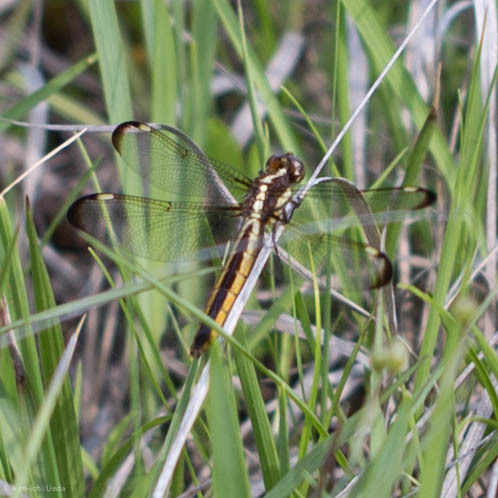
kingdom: Animalia
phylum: Arthropoda
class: Insecta
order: Odonata
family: Libellulidae
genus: Libellula
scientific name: Libellula cyanea
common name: Spangled skimmer
